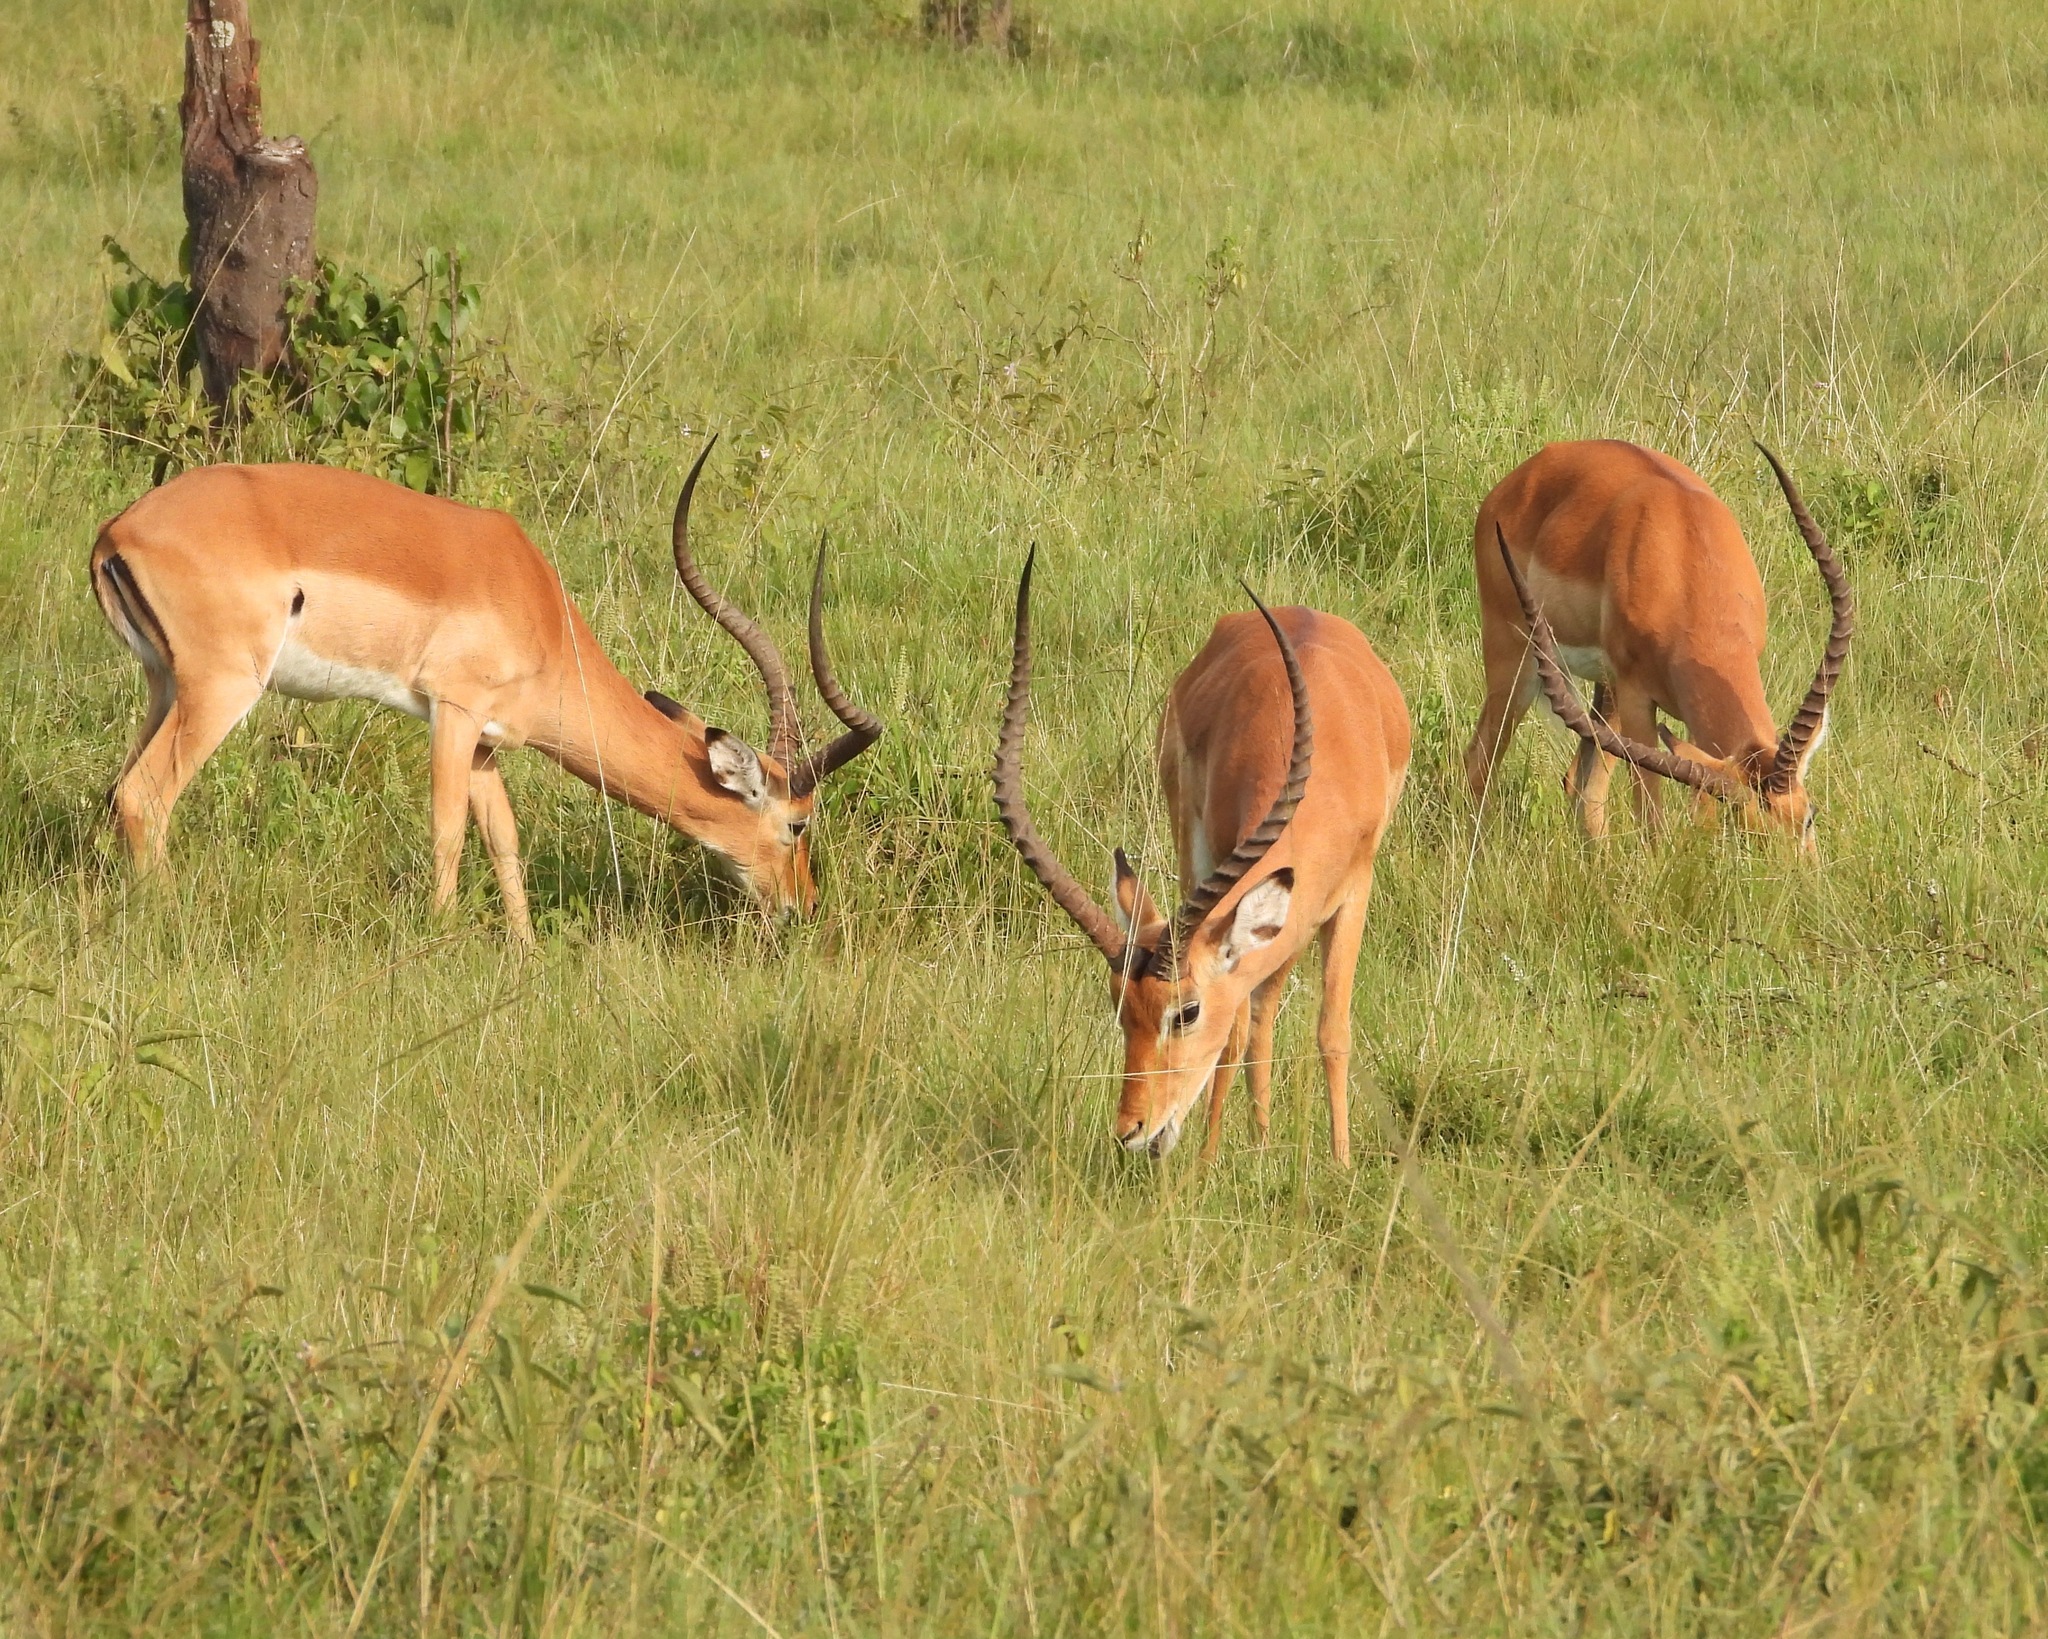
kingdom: Animalia
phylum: Chordata
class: Mammalia
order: Artiodactyla
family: Bovidae
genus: Aepyceros
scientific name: Aepyceros melampus
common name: Impala
